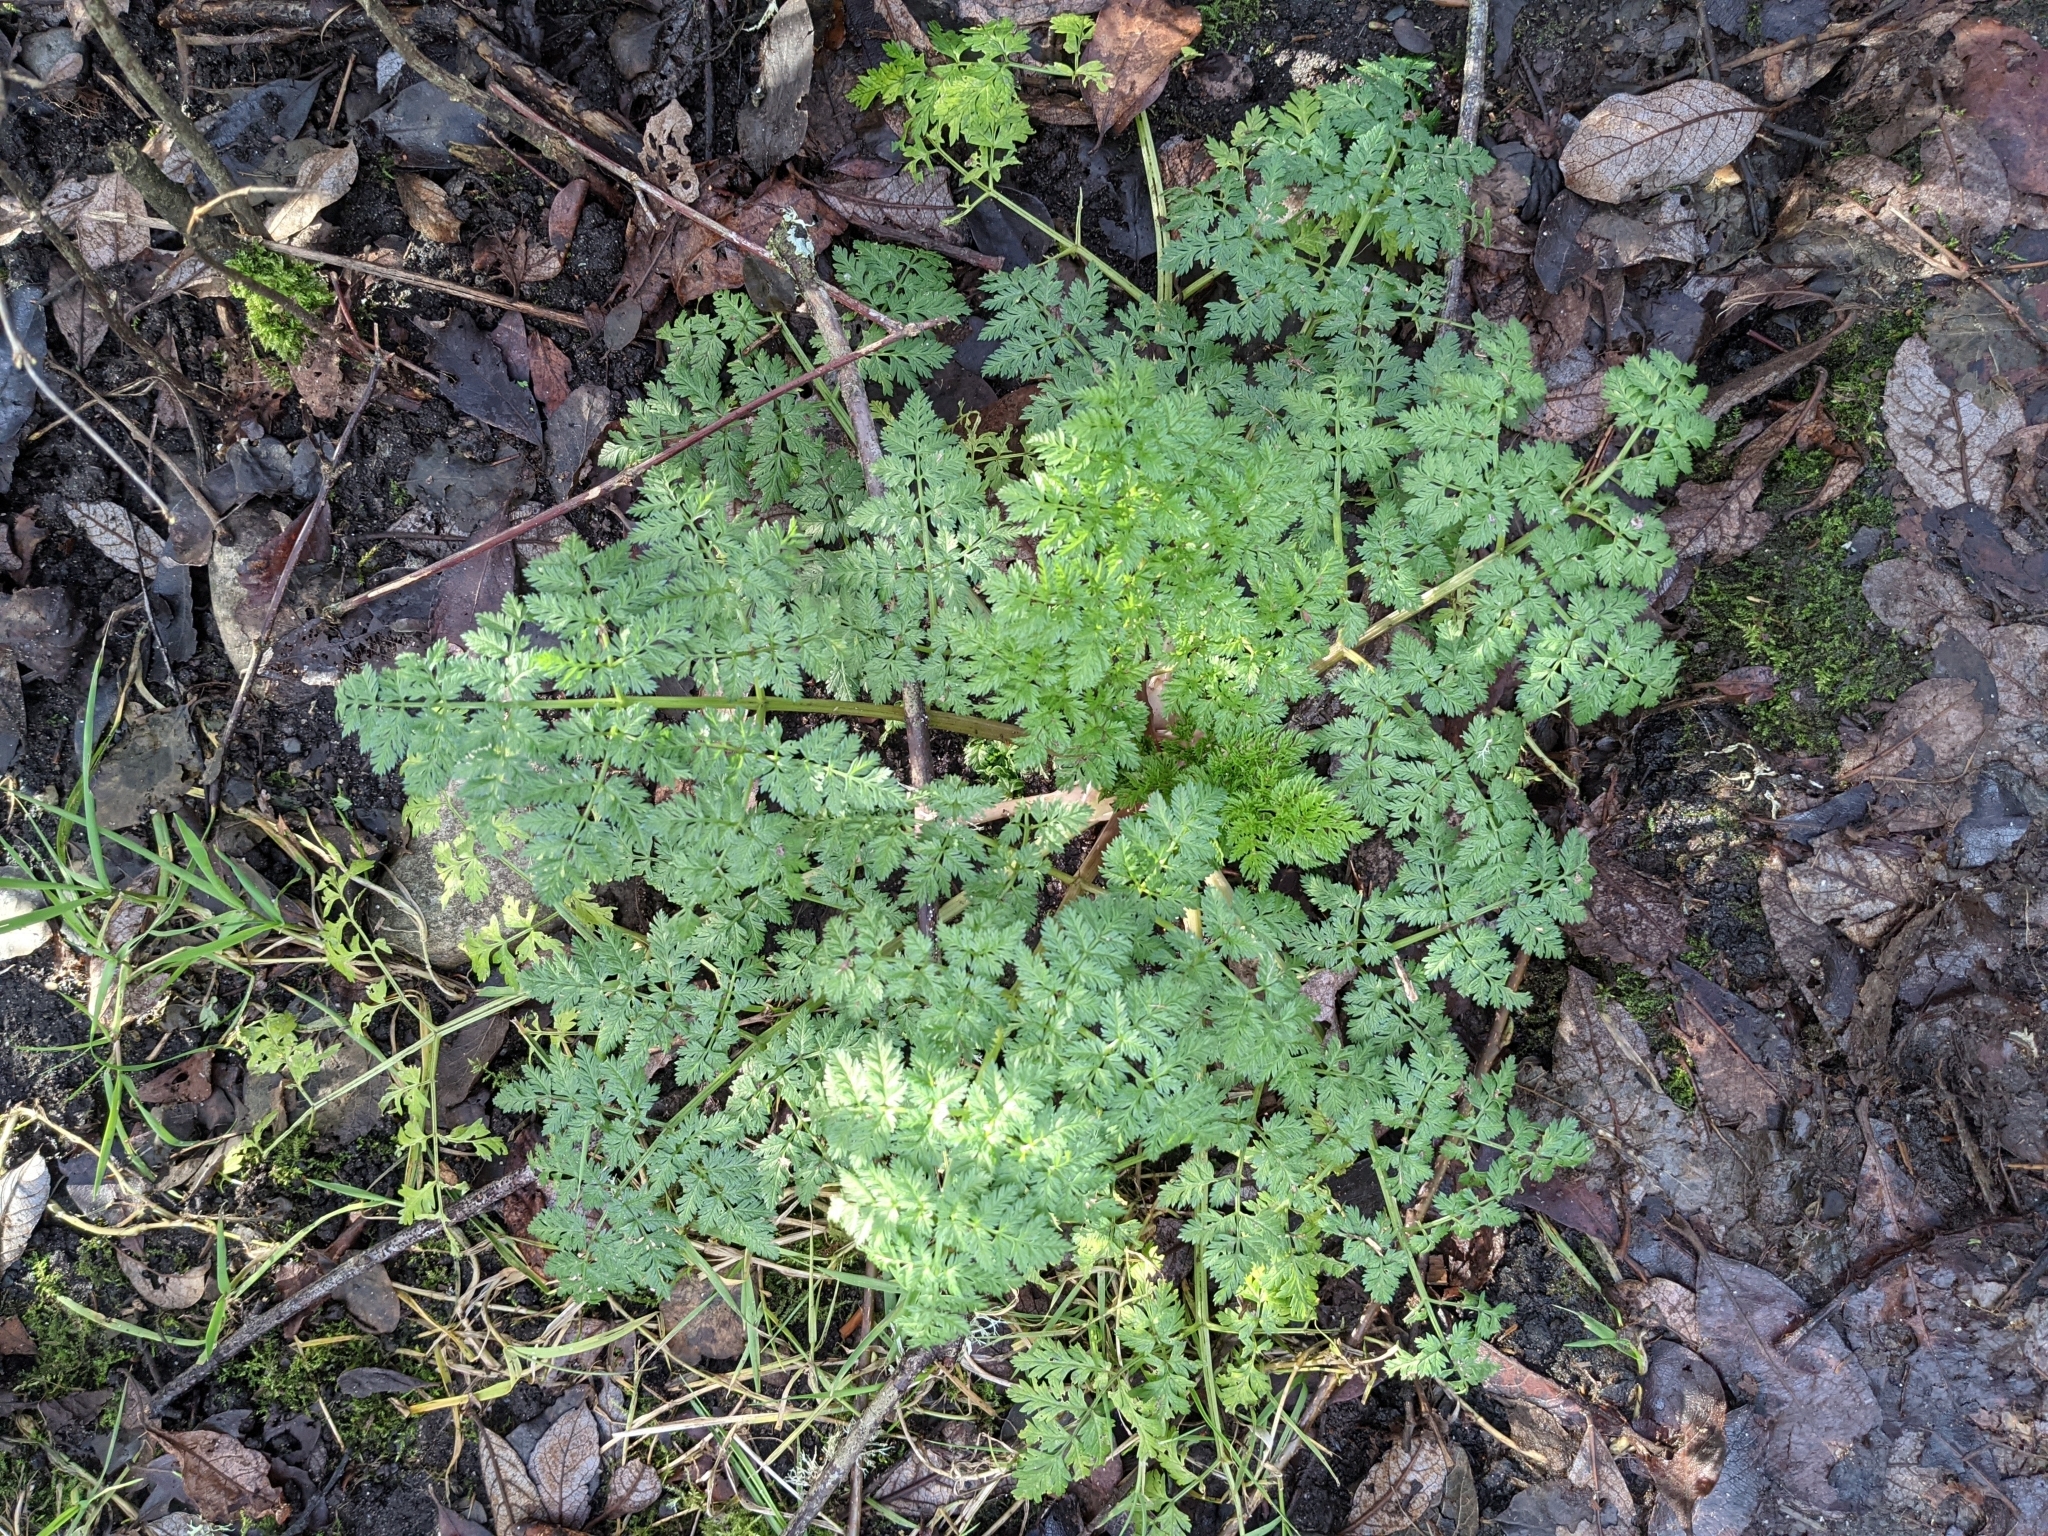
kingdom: Plantae
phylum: Tracheophyta
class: Magnoliopsida
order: Apiales
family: Apiaceae
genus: Conium
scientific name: Conium maculatum
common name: Hemlock
